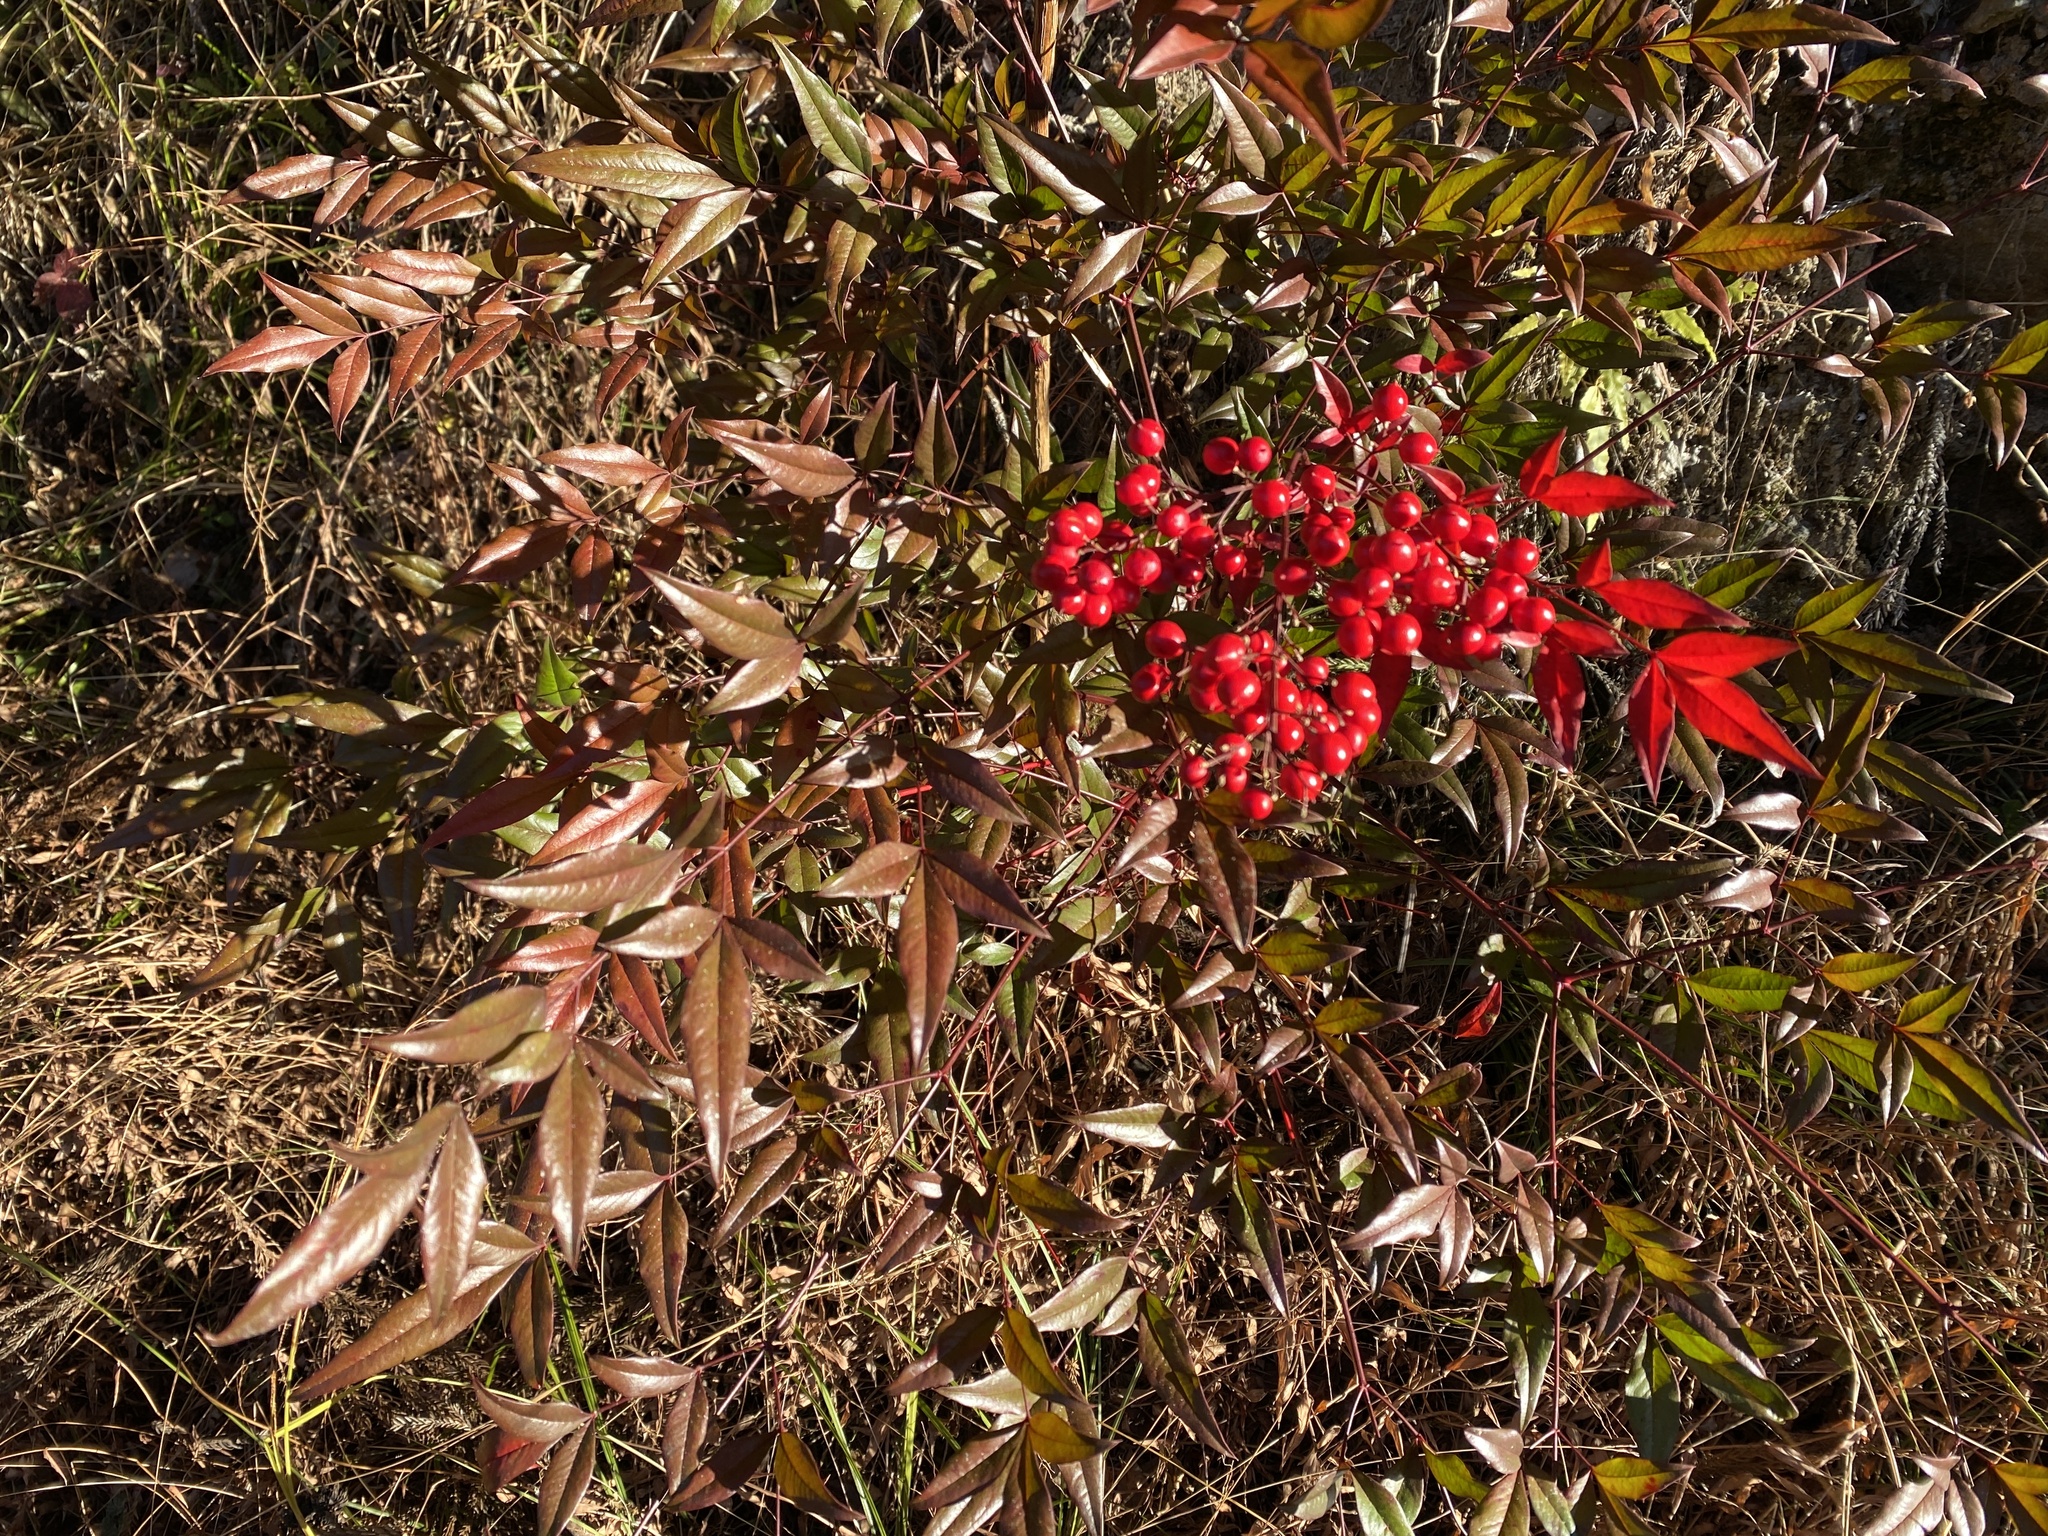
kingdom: Plantae
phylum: Tracheophyta
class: Magnoliopsida
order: Ranunculales
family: Berberidaceae
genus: Nandina
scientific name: Nandina domestica
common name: Sacred bamboo
